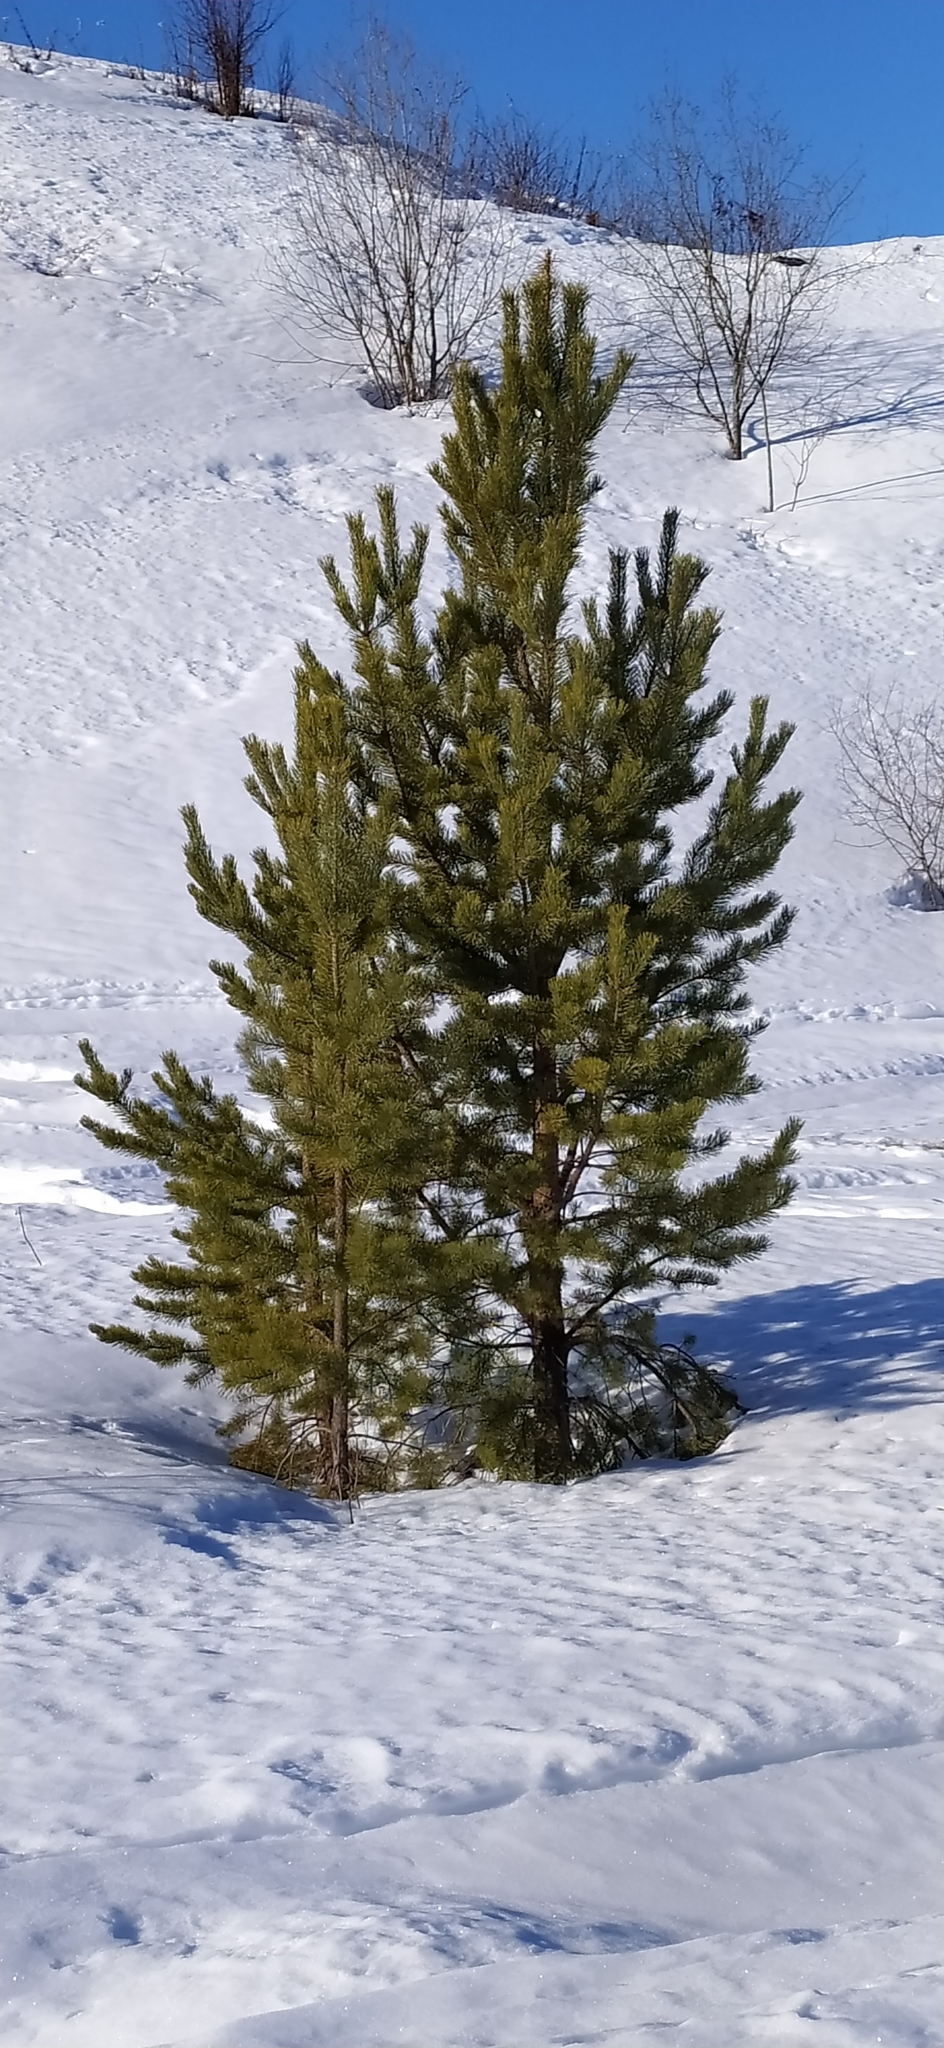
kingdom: Plantae
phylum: Tracheophyta
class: Pinopsida
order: Pinales
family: Pinaceae
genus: Pinus
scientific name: Pinus sylvestris
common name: Scots pine
